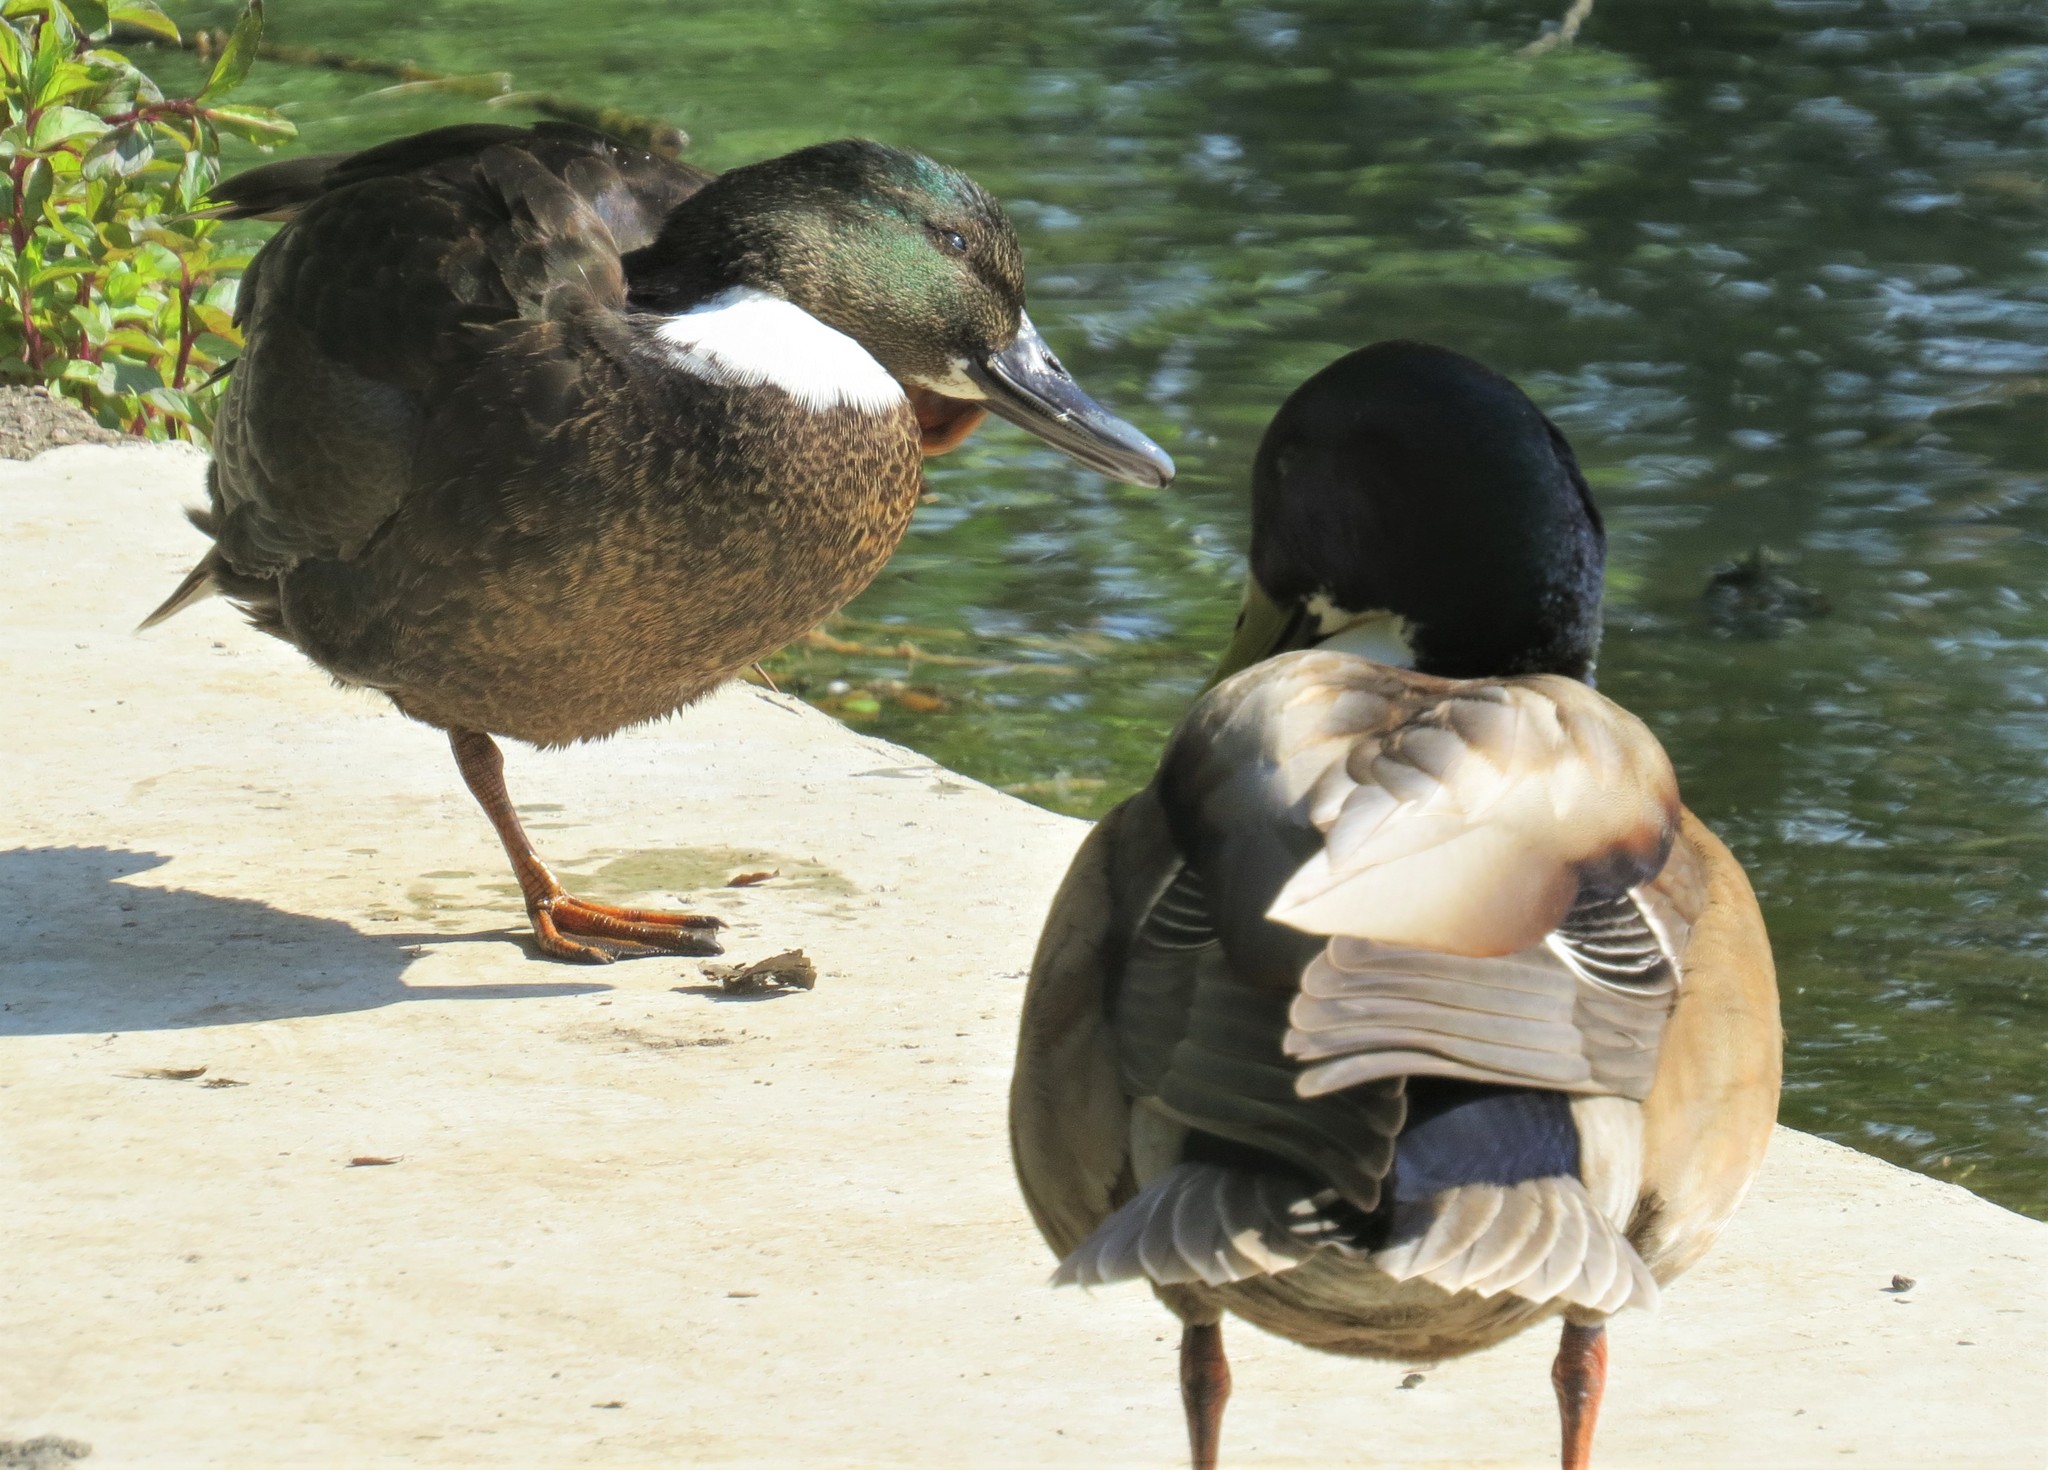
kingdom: Animalia
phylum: Chordata
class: Aves
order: Anseriformes
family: Anatidae
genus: Anas
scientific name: Anas platyrhynchos
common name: Mallard
